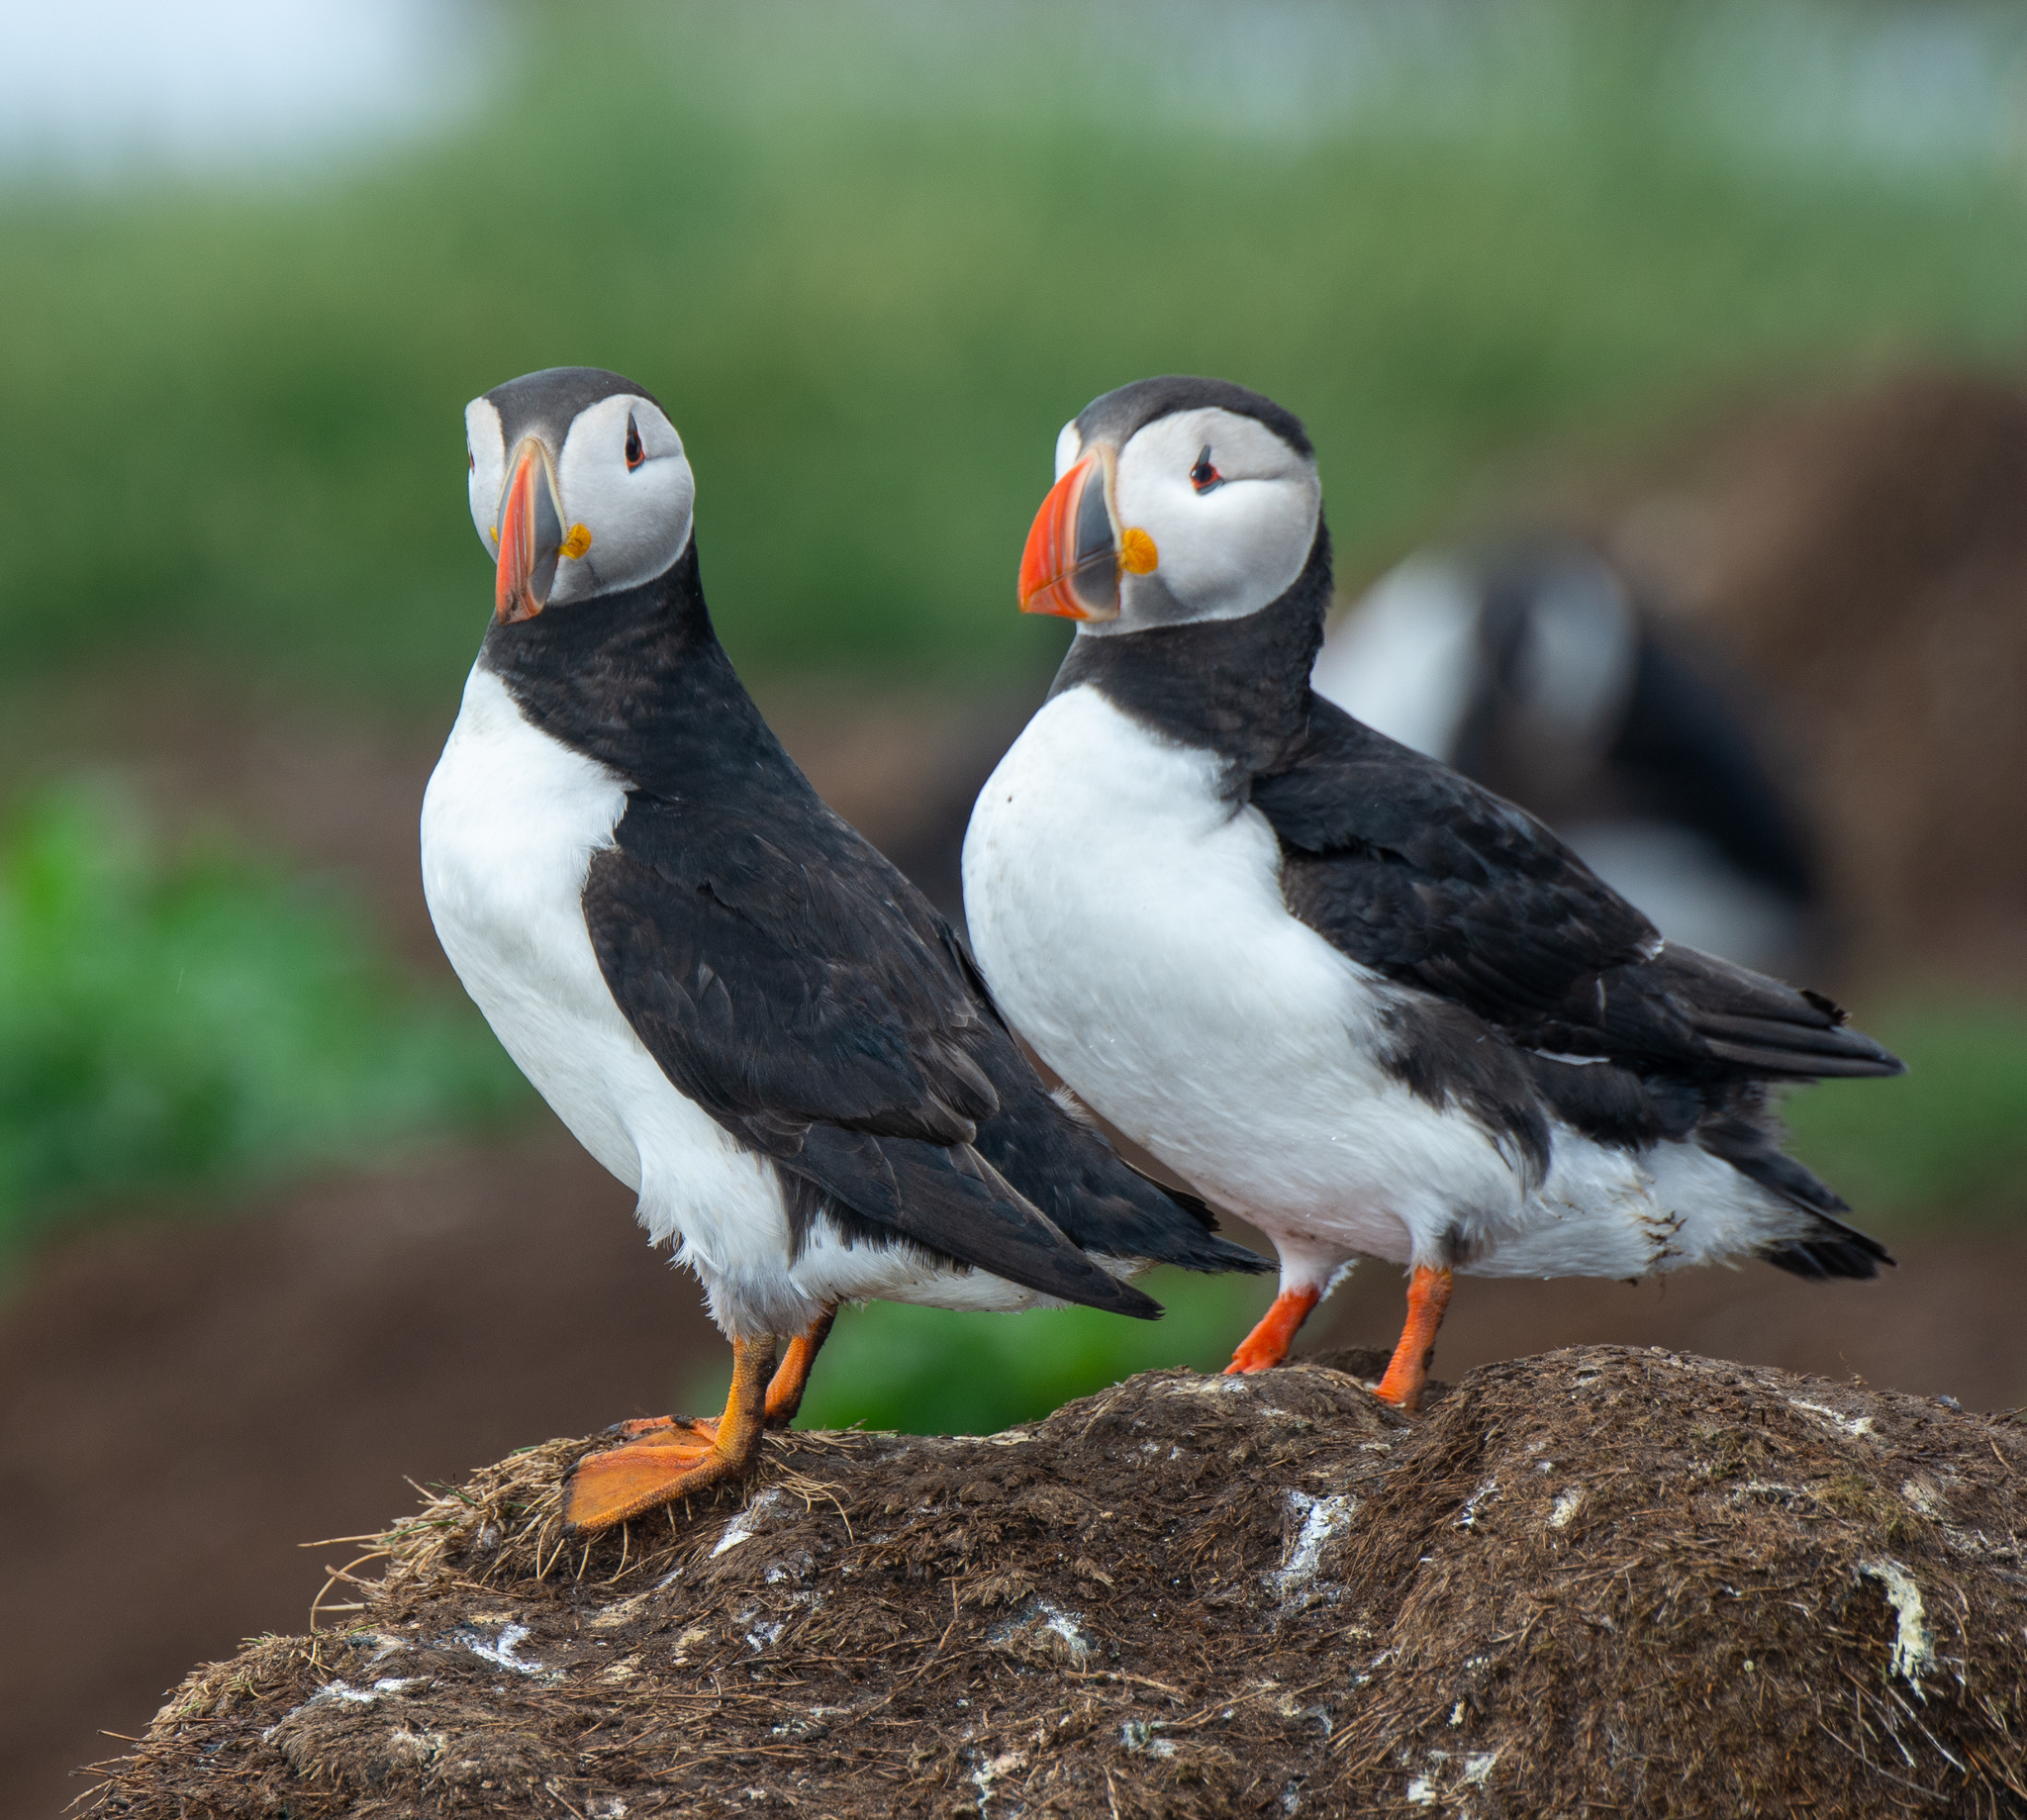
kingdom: Animalia
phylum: Chordata
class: Aves
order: Charadriiformes
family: Alcidae
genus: Fratercula
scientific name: Fratercula arctica
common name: Atlantic puffin
